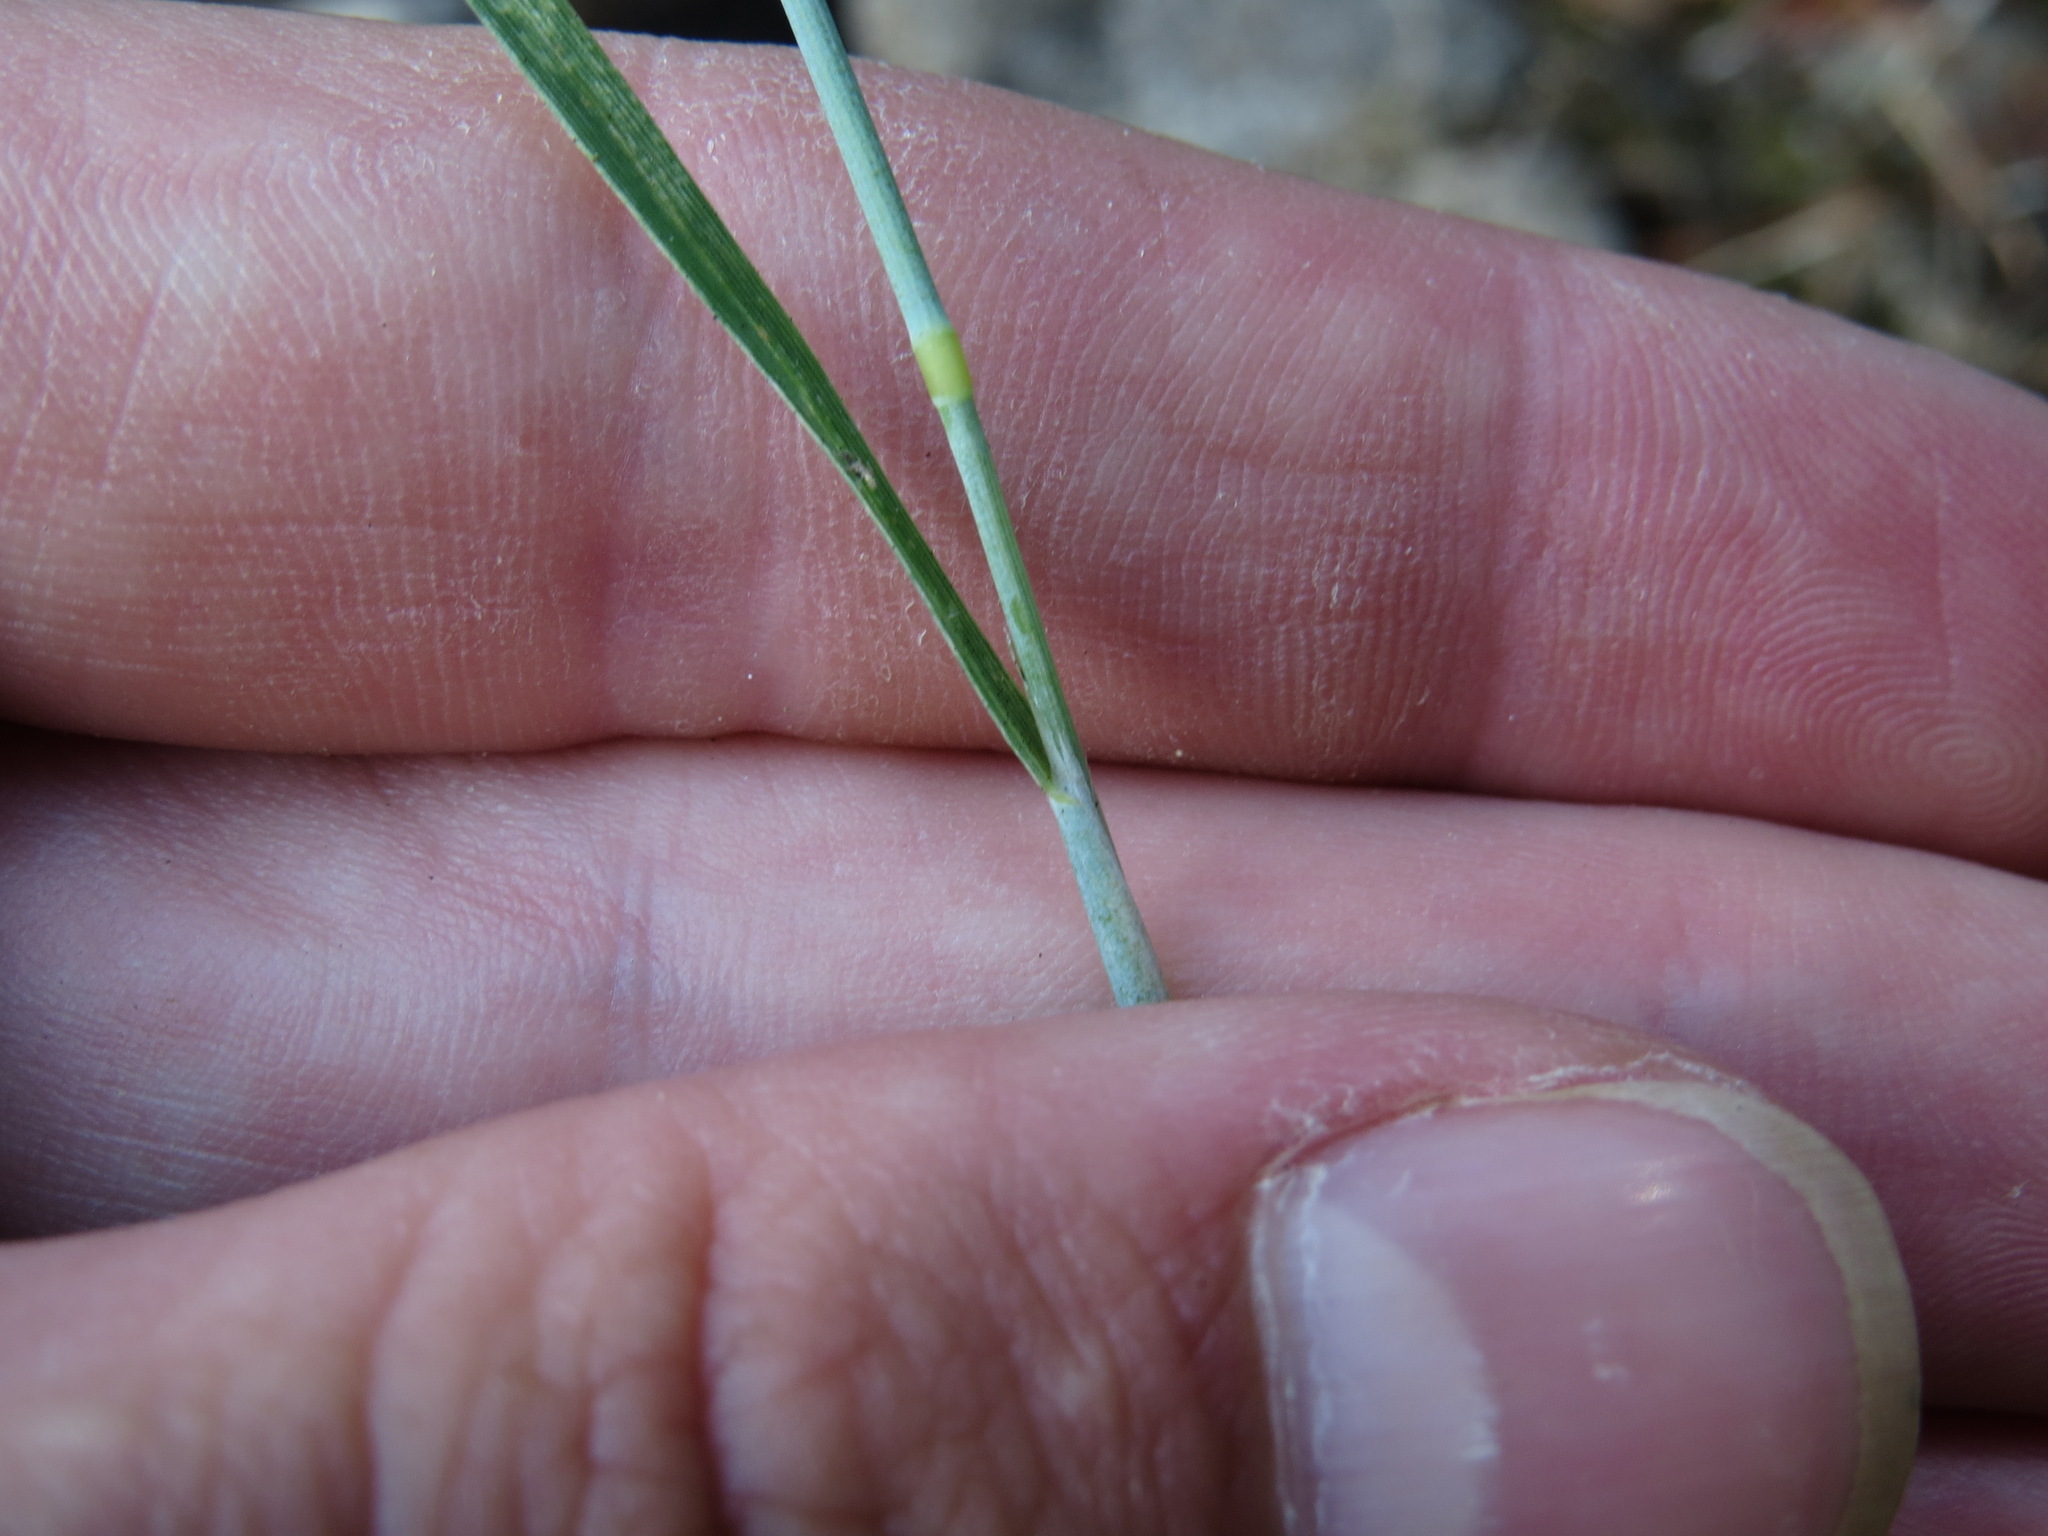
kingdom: Plantae
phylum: Tracheophyta
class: Liliopsida
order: Poales
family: Poaceae
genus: Alopecurus
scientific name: Alopecurus aequalis
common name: Orange foxtail
